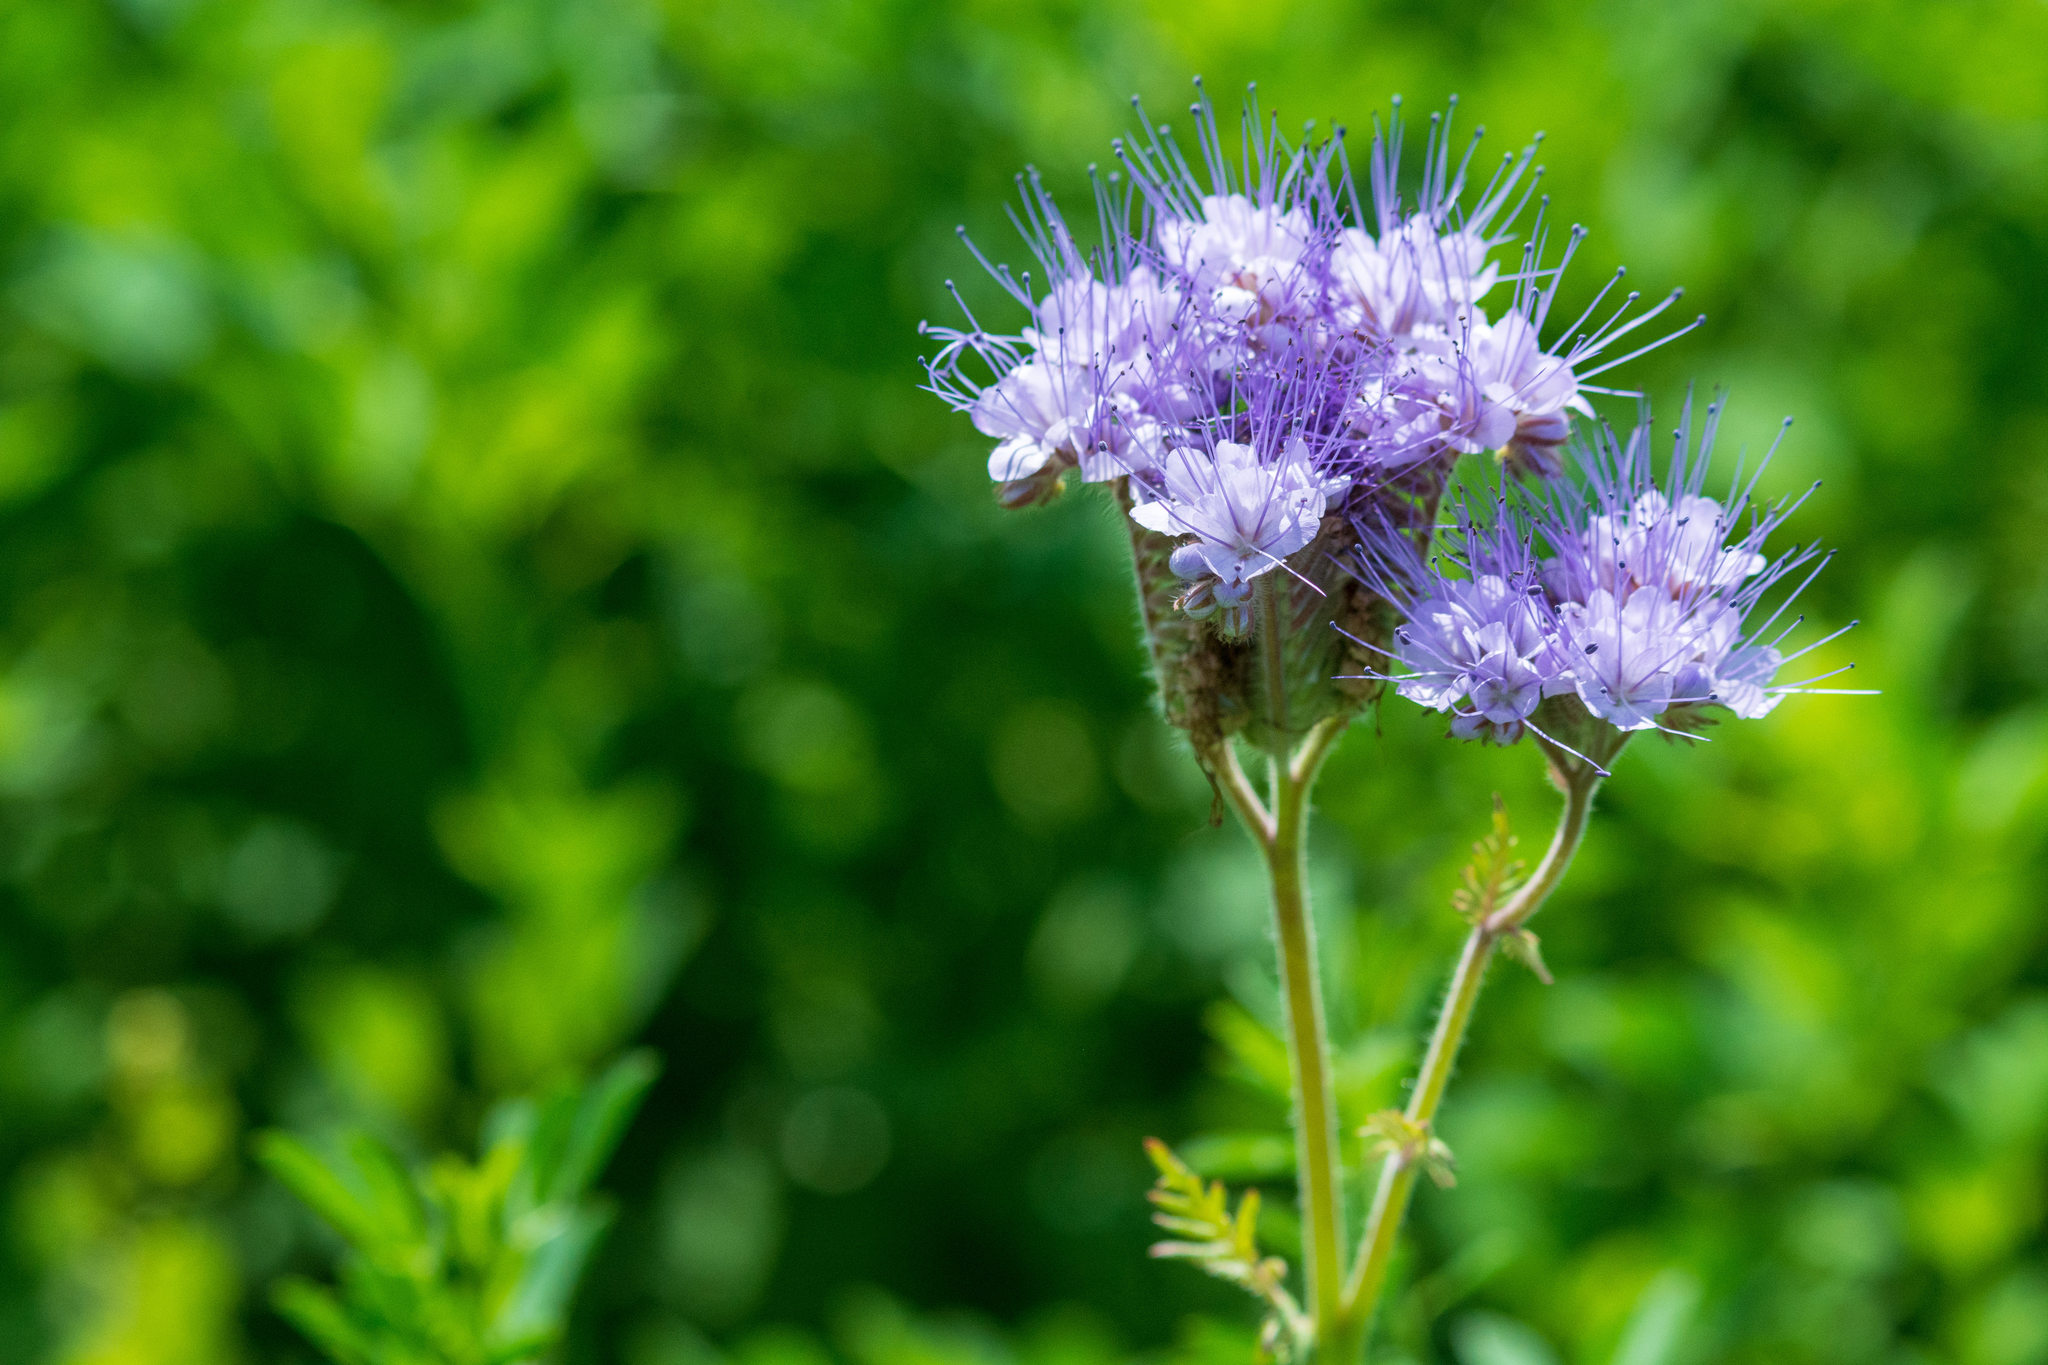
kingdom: Plantae
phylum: Tracheophyta
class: Magnoliopsida
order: Boraginales
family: Hydrophyllaceae
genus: Phacelia
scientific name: Phacelia tanacetifolia
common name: Phacelia
